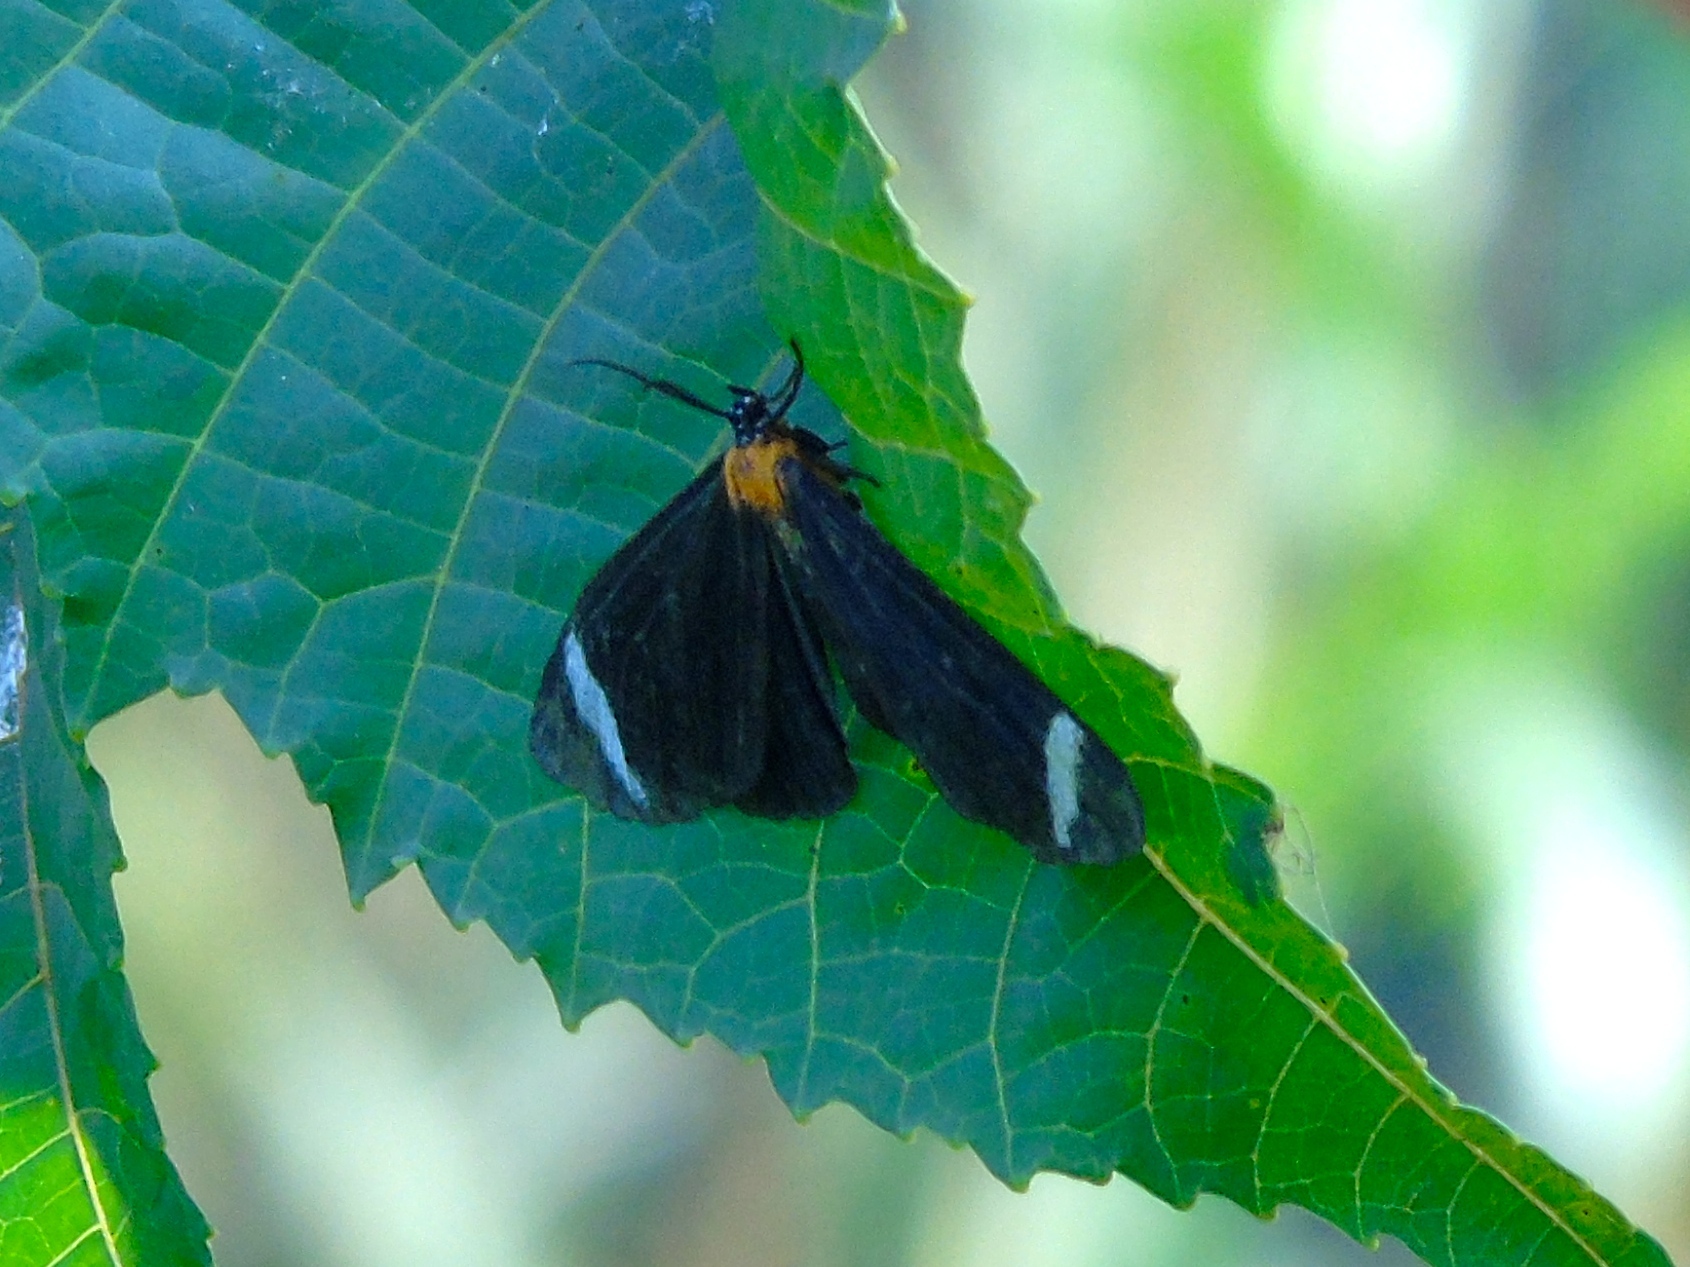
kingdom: Animalia
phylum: Arthropoda
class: Insecta
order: Lepidoptera
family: Erebidae
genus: Hyalurga
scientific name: Hyalurga chthonophyle
